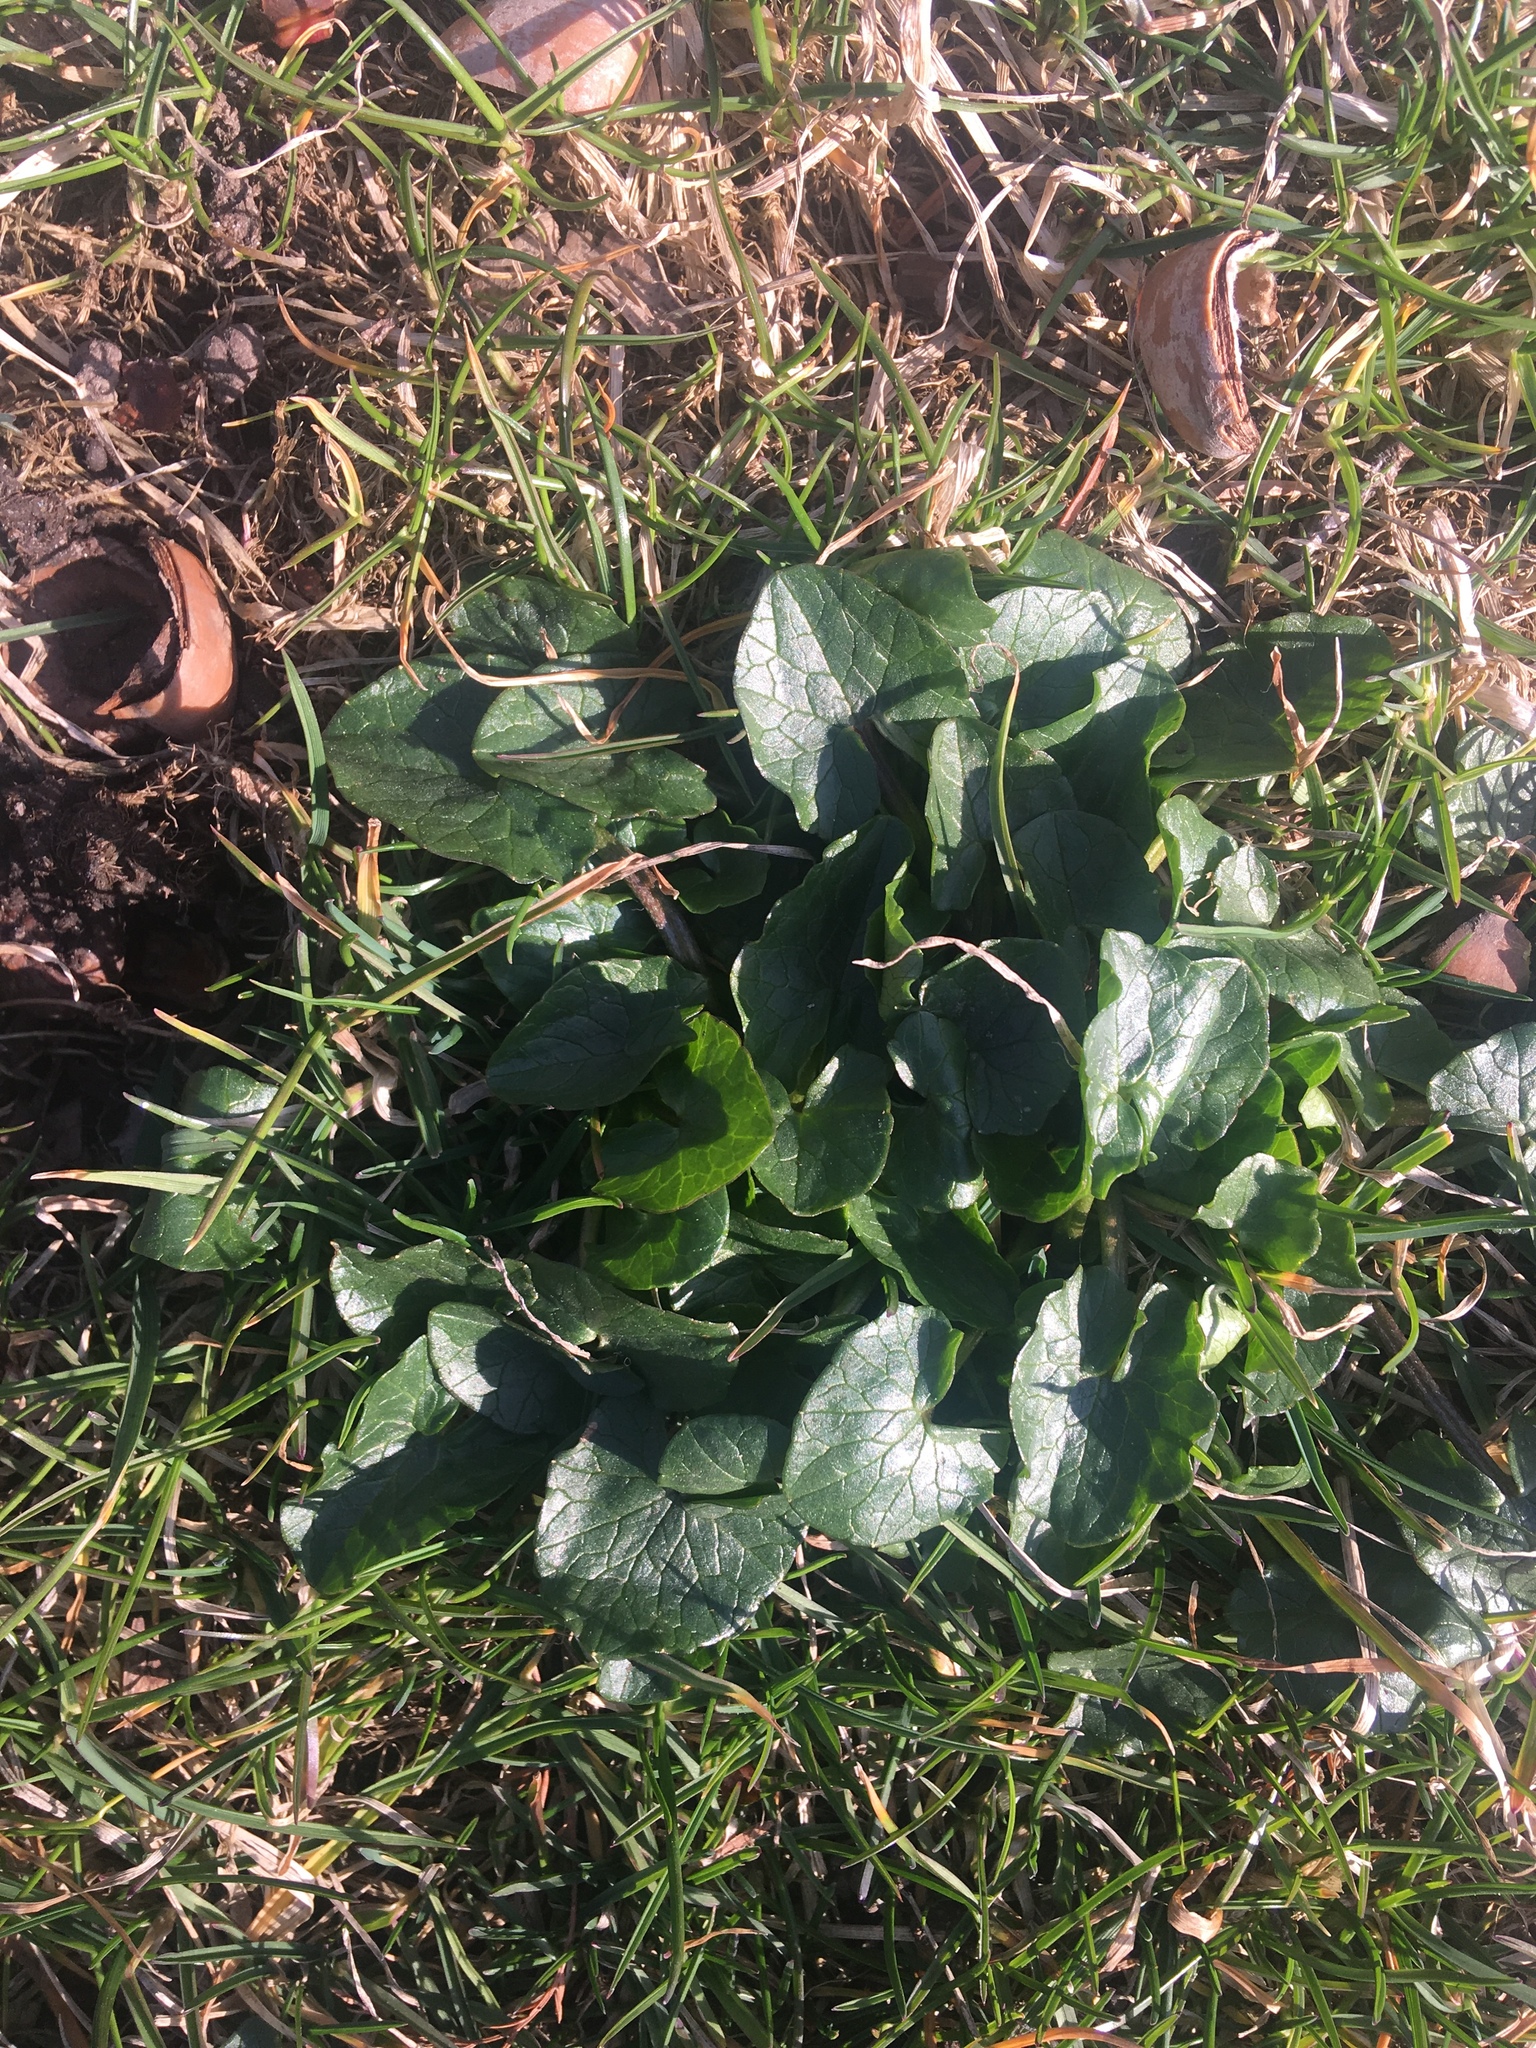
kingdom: Plantae
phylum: Tracheophyta
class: Magnoliopsida
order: Ranunculales
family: Ranunculaceae
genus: Ficaria
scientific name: Ficaria verna
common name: Lesser celandine
